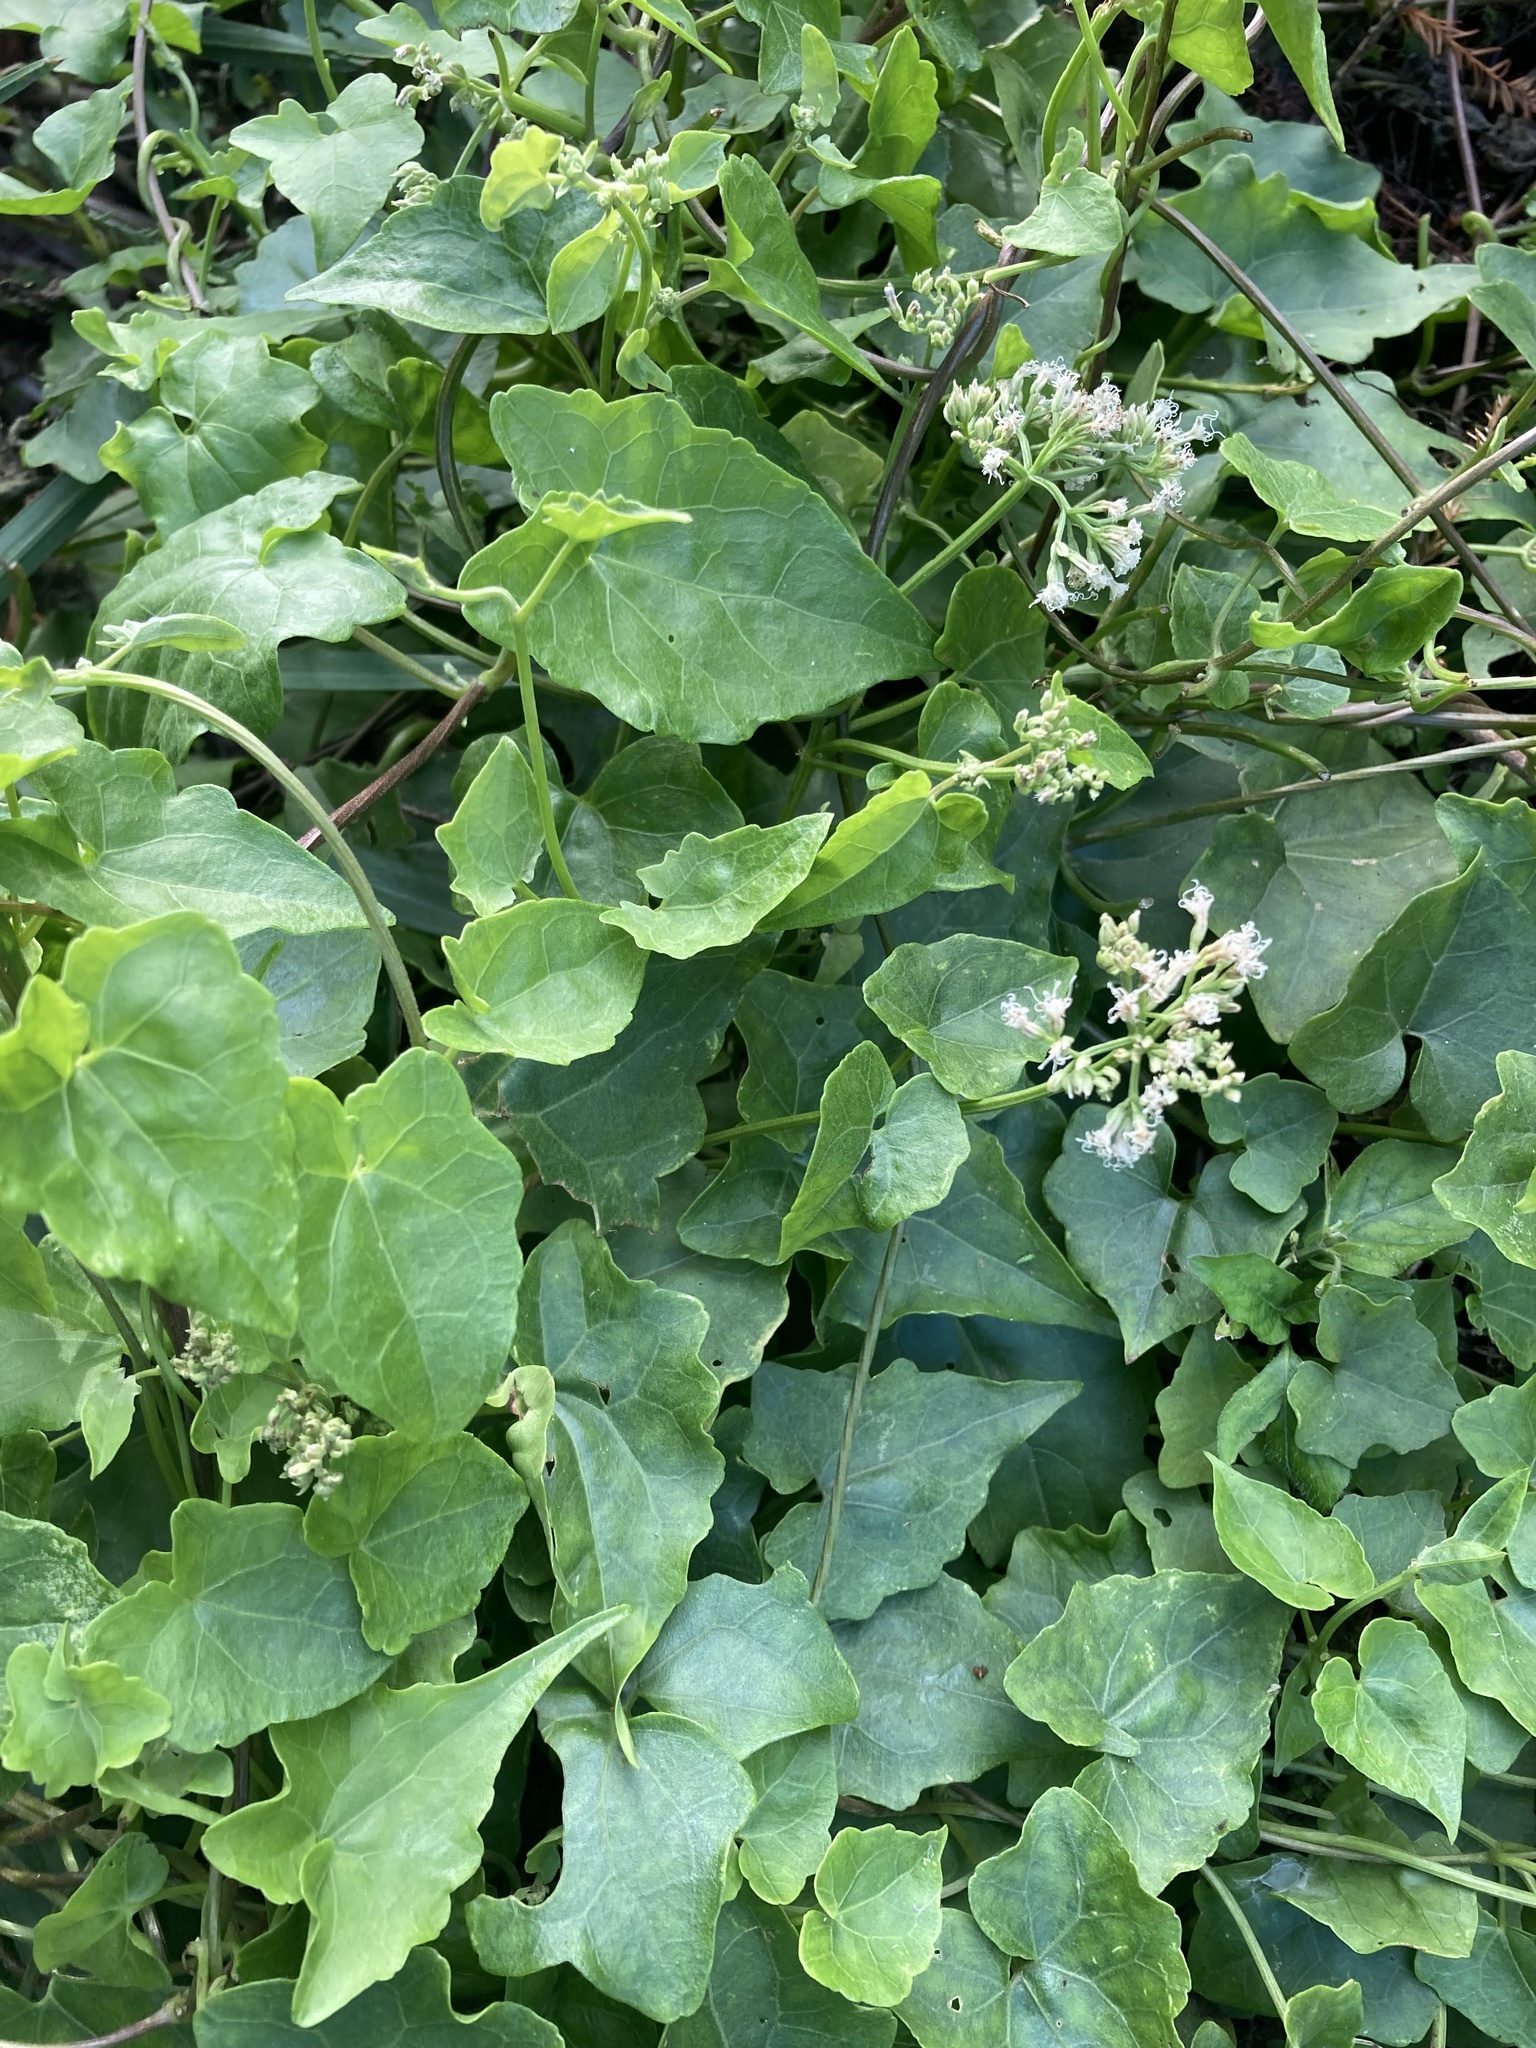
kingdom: Plantae
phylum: Tracheophyta
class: Magnoliopsida
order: Asterales
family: Asteraceae
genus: Mikania
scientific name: Mikania scandens
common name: Climbing hempvine
